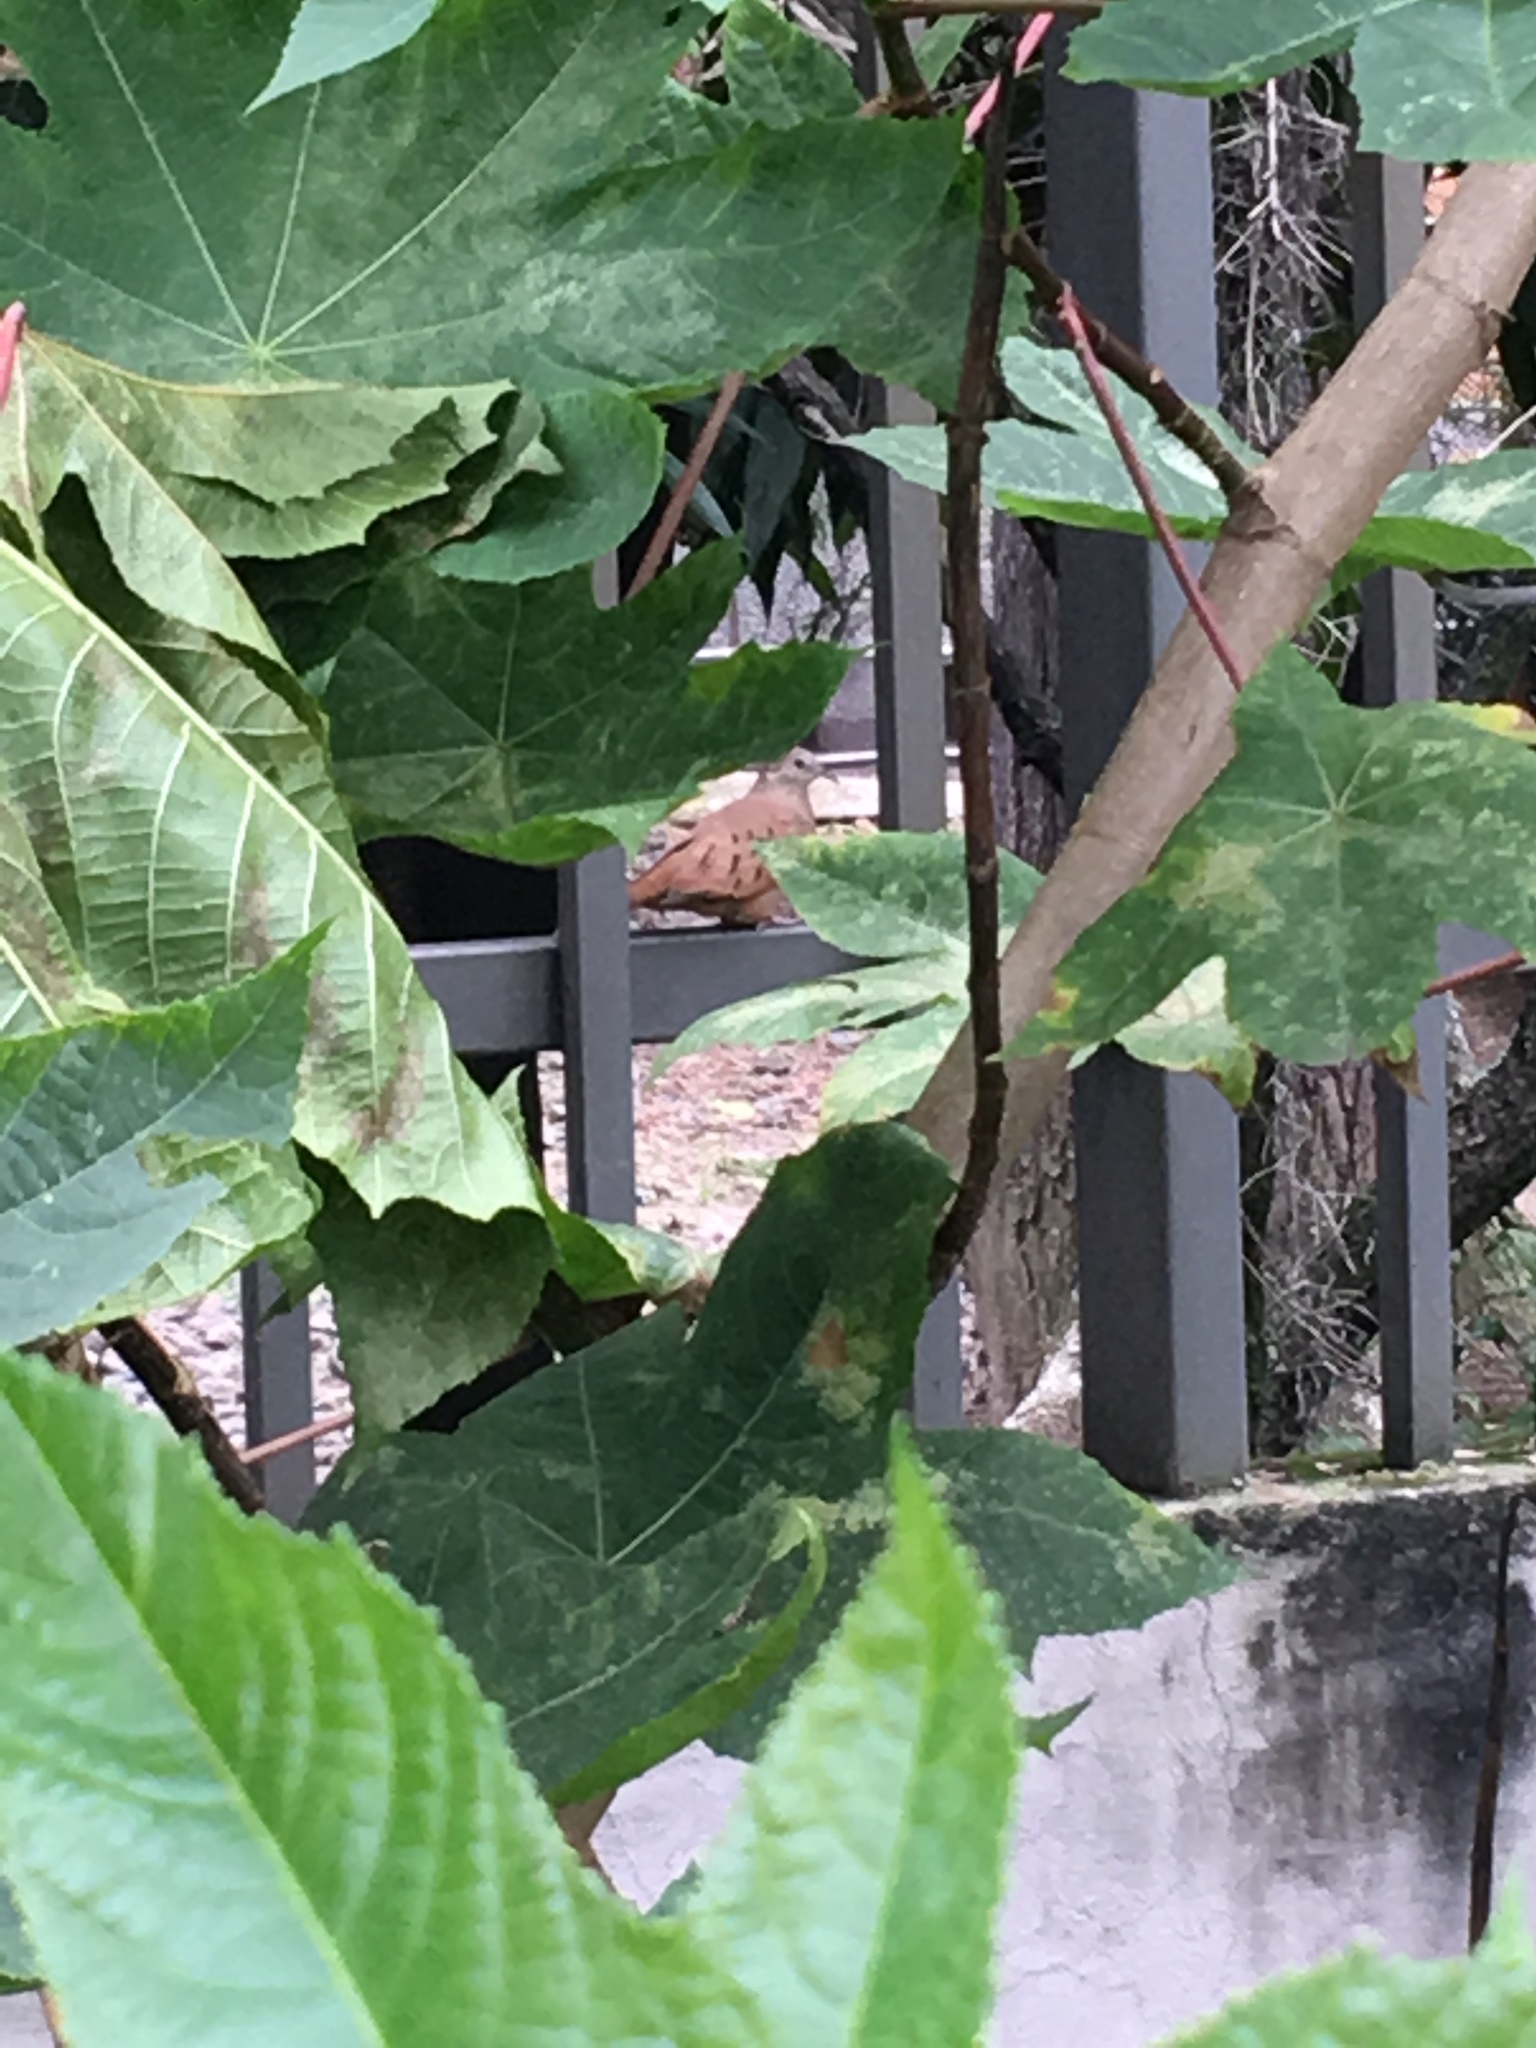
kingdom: Animalia
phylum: Chordata
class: Aves
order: Columbiformes
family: Columbidae
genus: Columbina
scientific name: Columbina talpacoti
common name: Ruddy ground dove
